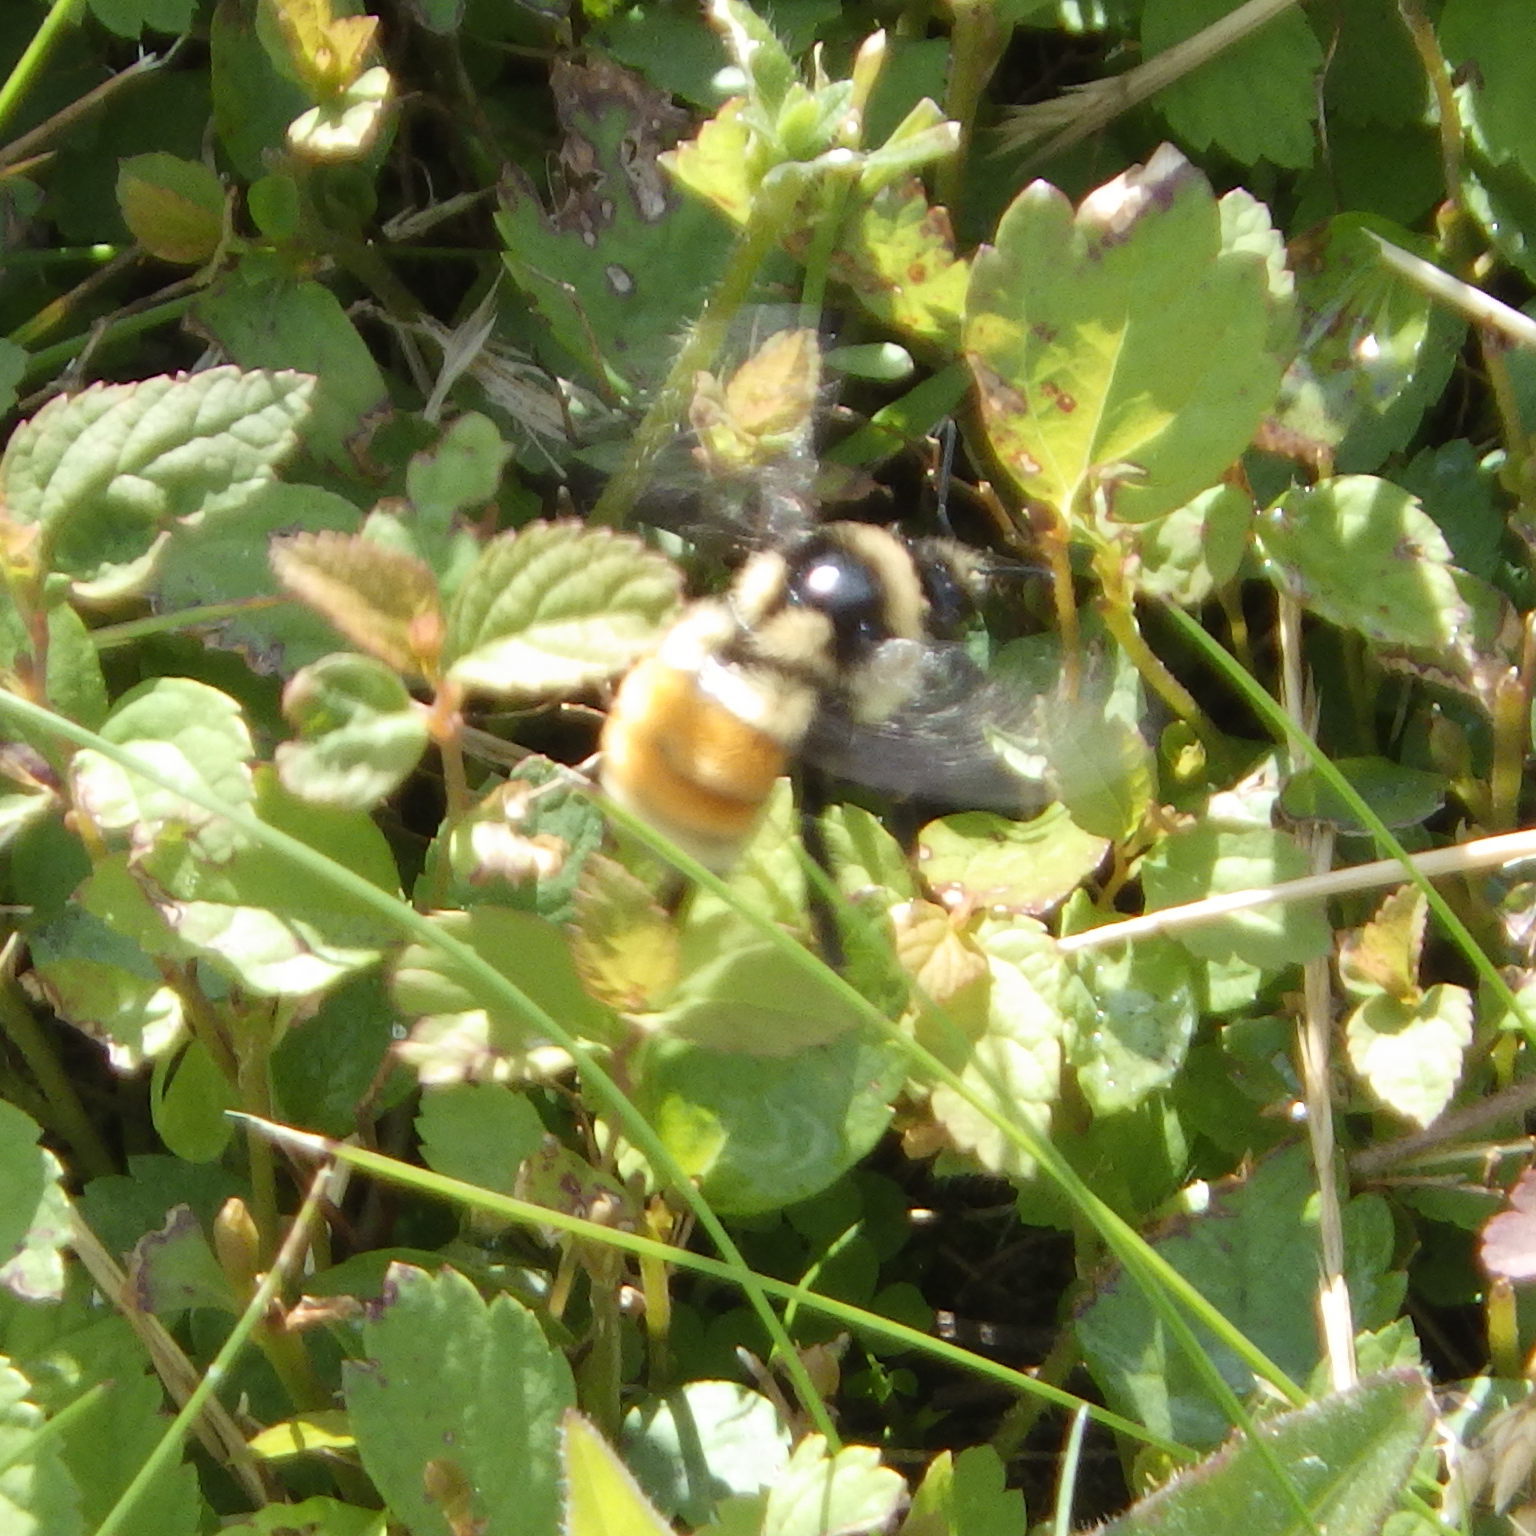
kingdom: Animalia
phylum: Arthropoda
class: Insecta
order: Hymenoptera
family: Apidae
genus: Bombus
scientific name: Bombus ternarius
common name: Tri-colored bumble bee
